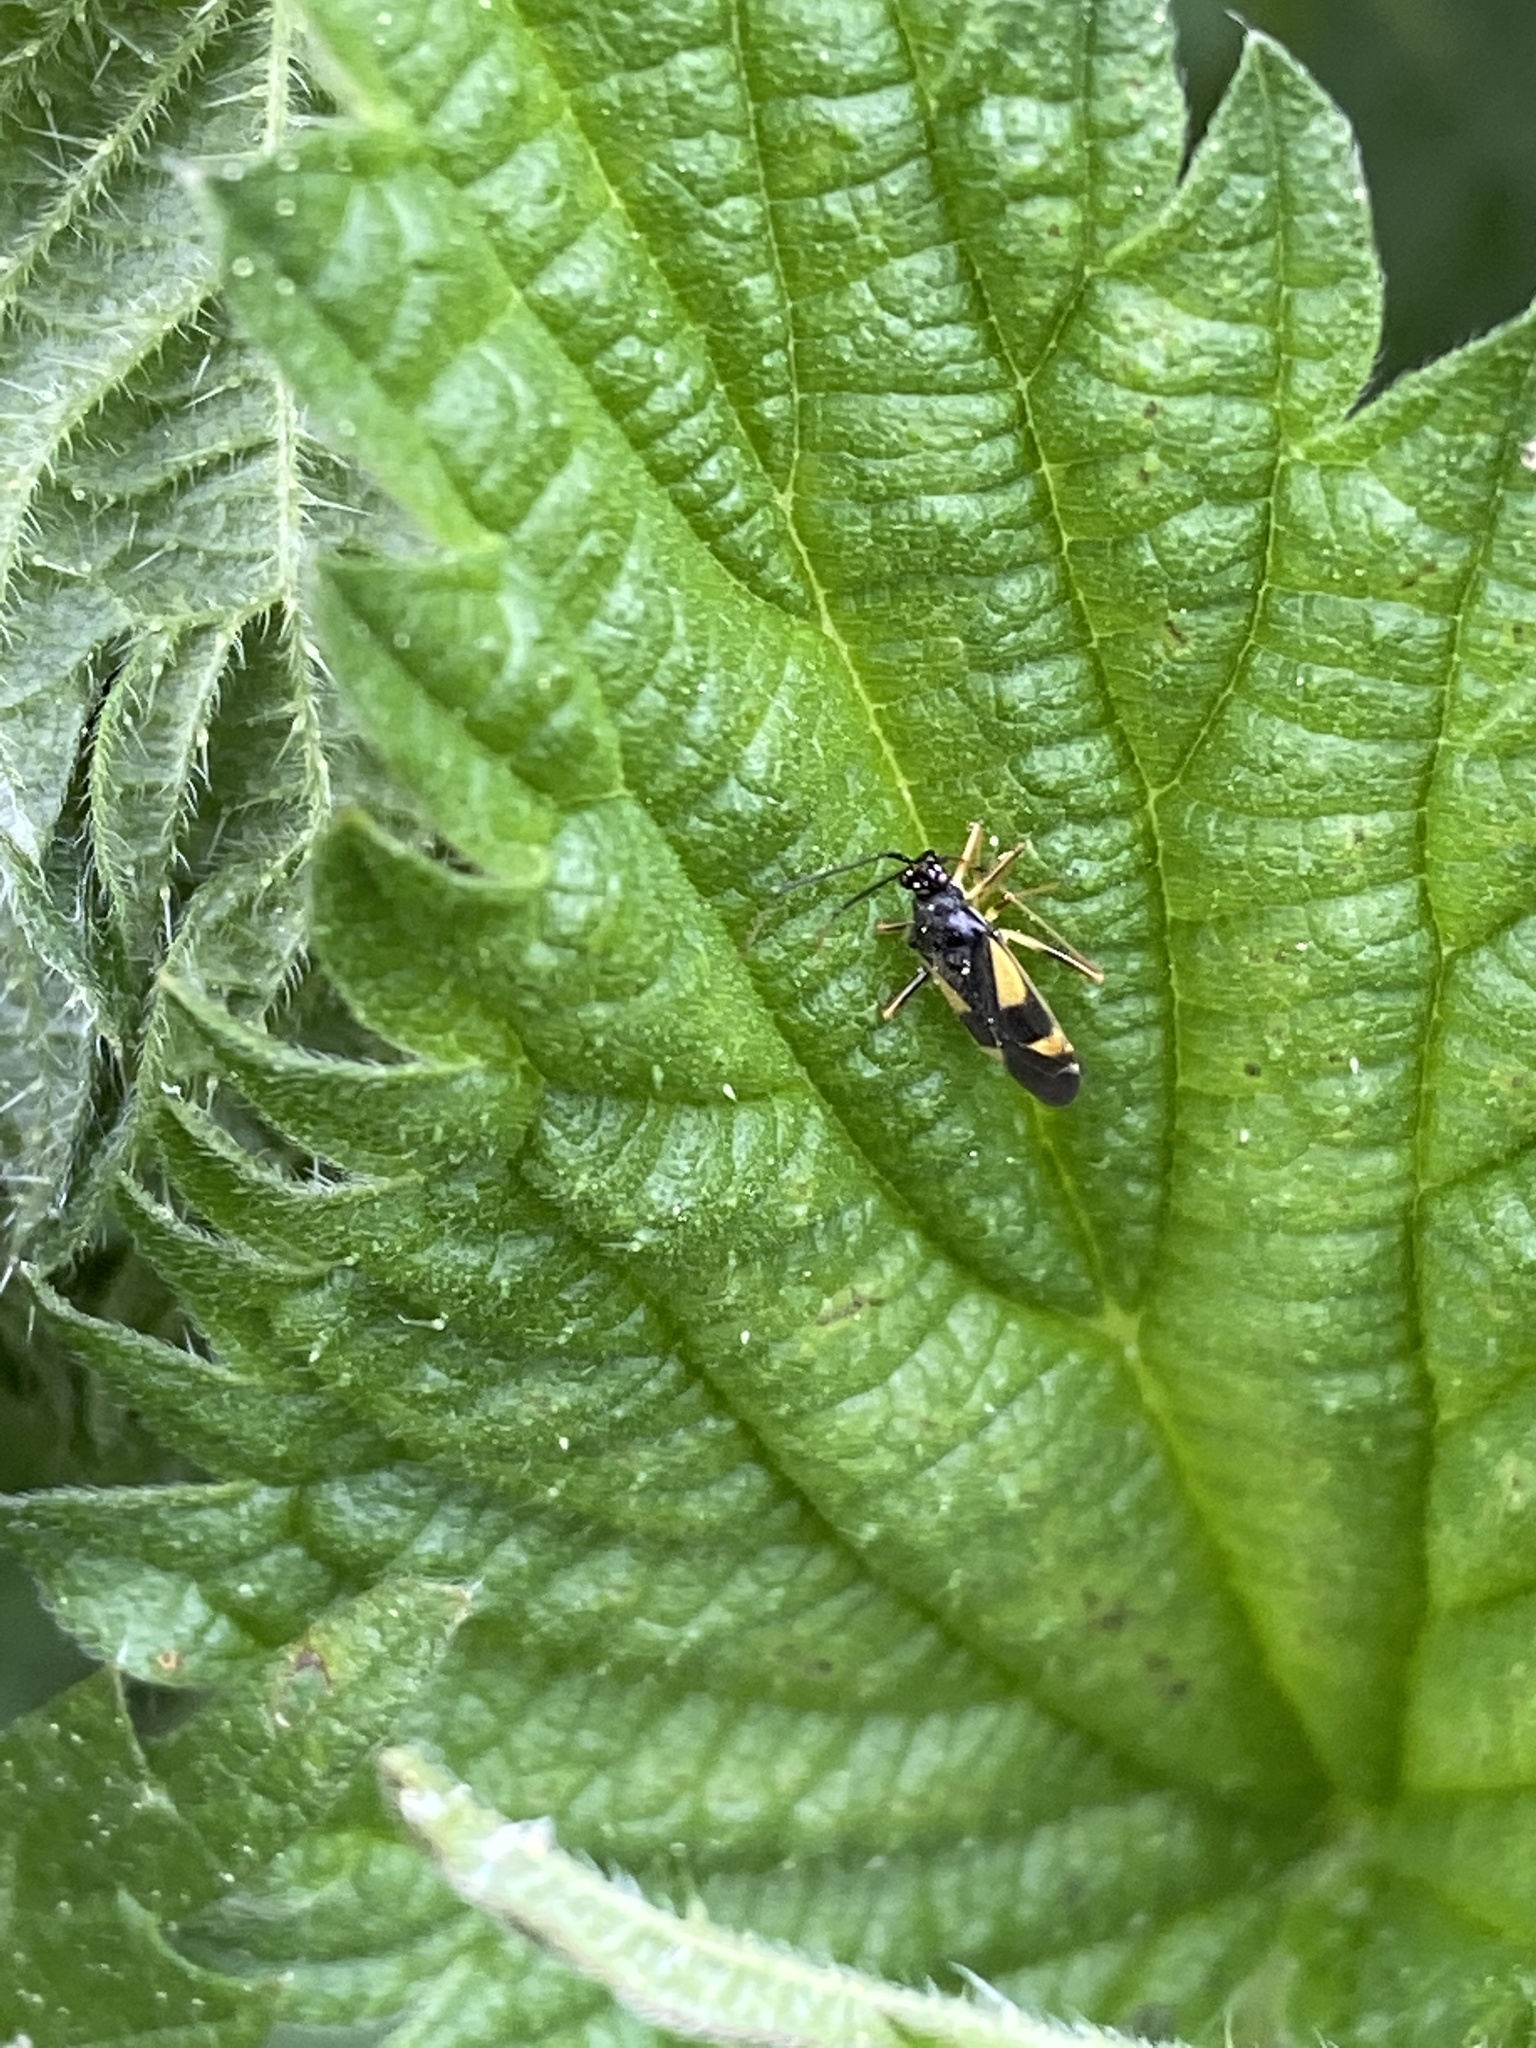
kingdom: Animalia
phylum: Arthropoda
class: Insecta
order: Hemiptera
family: Miridae
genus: Dryophilocoris
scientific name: Dryophilocoris flavoquadrimaculatus
